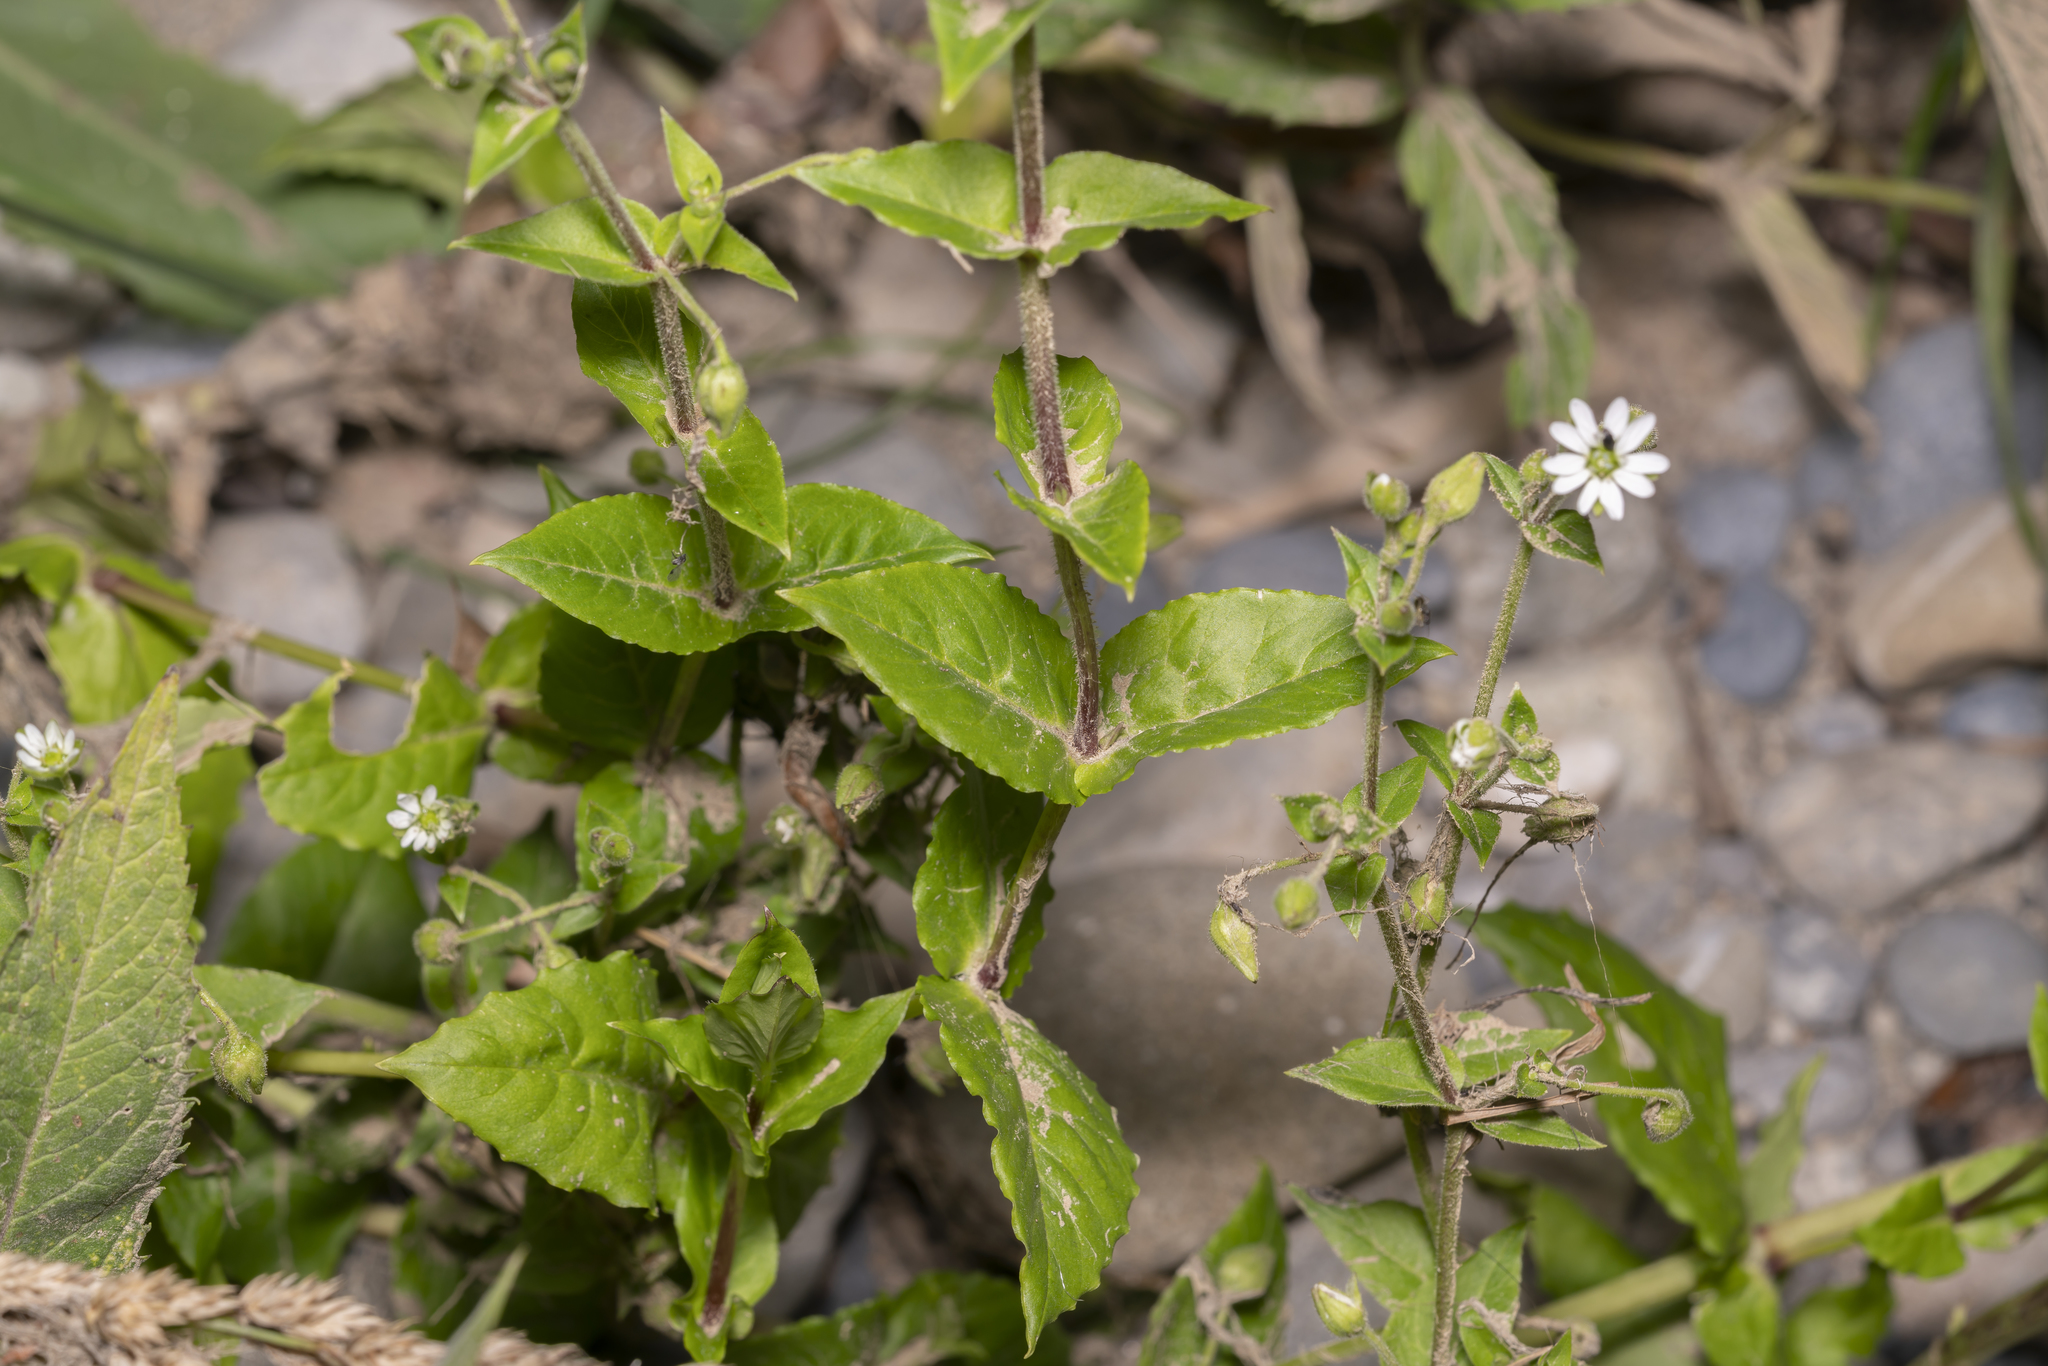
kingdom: Plantae
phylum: Tracheophyta
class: Magnoliopsida
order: Caryophyllales
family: Caryophyllaceae
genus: Stellaria
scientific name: Stellaria aquatica
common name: Water chickweed
